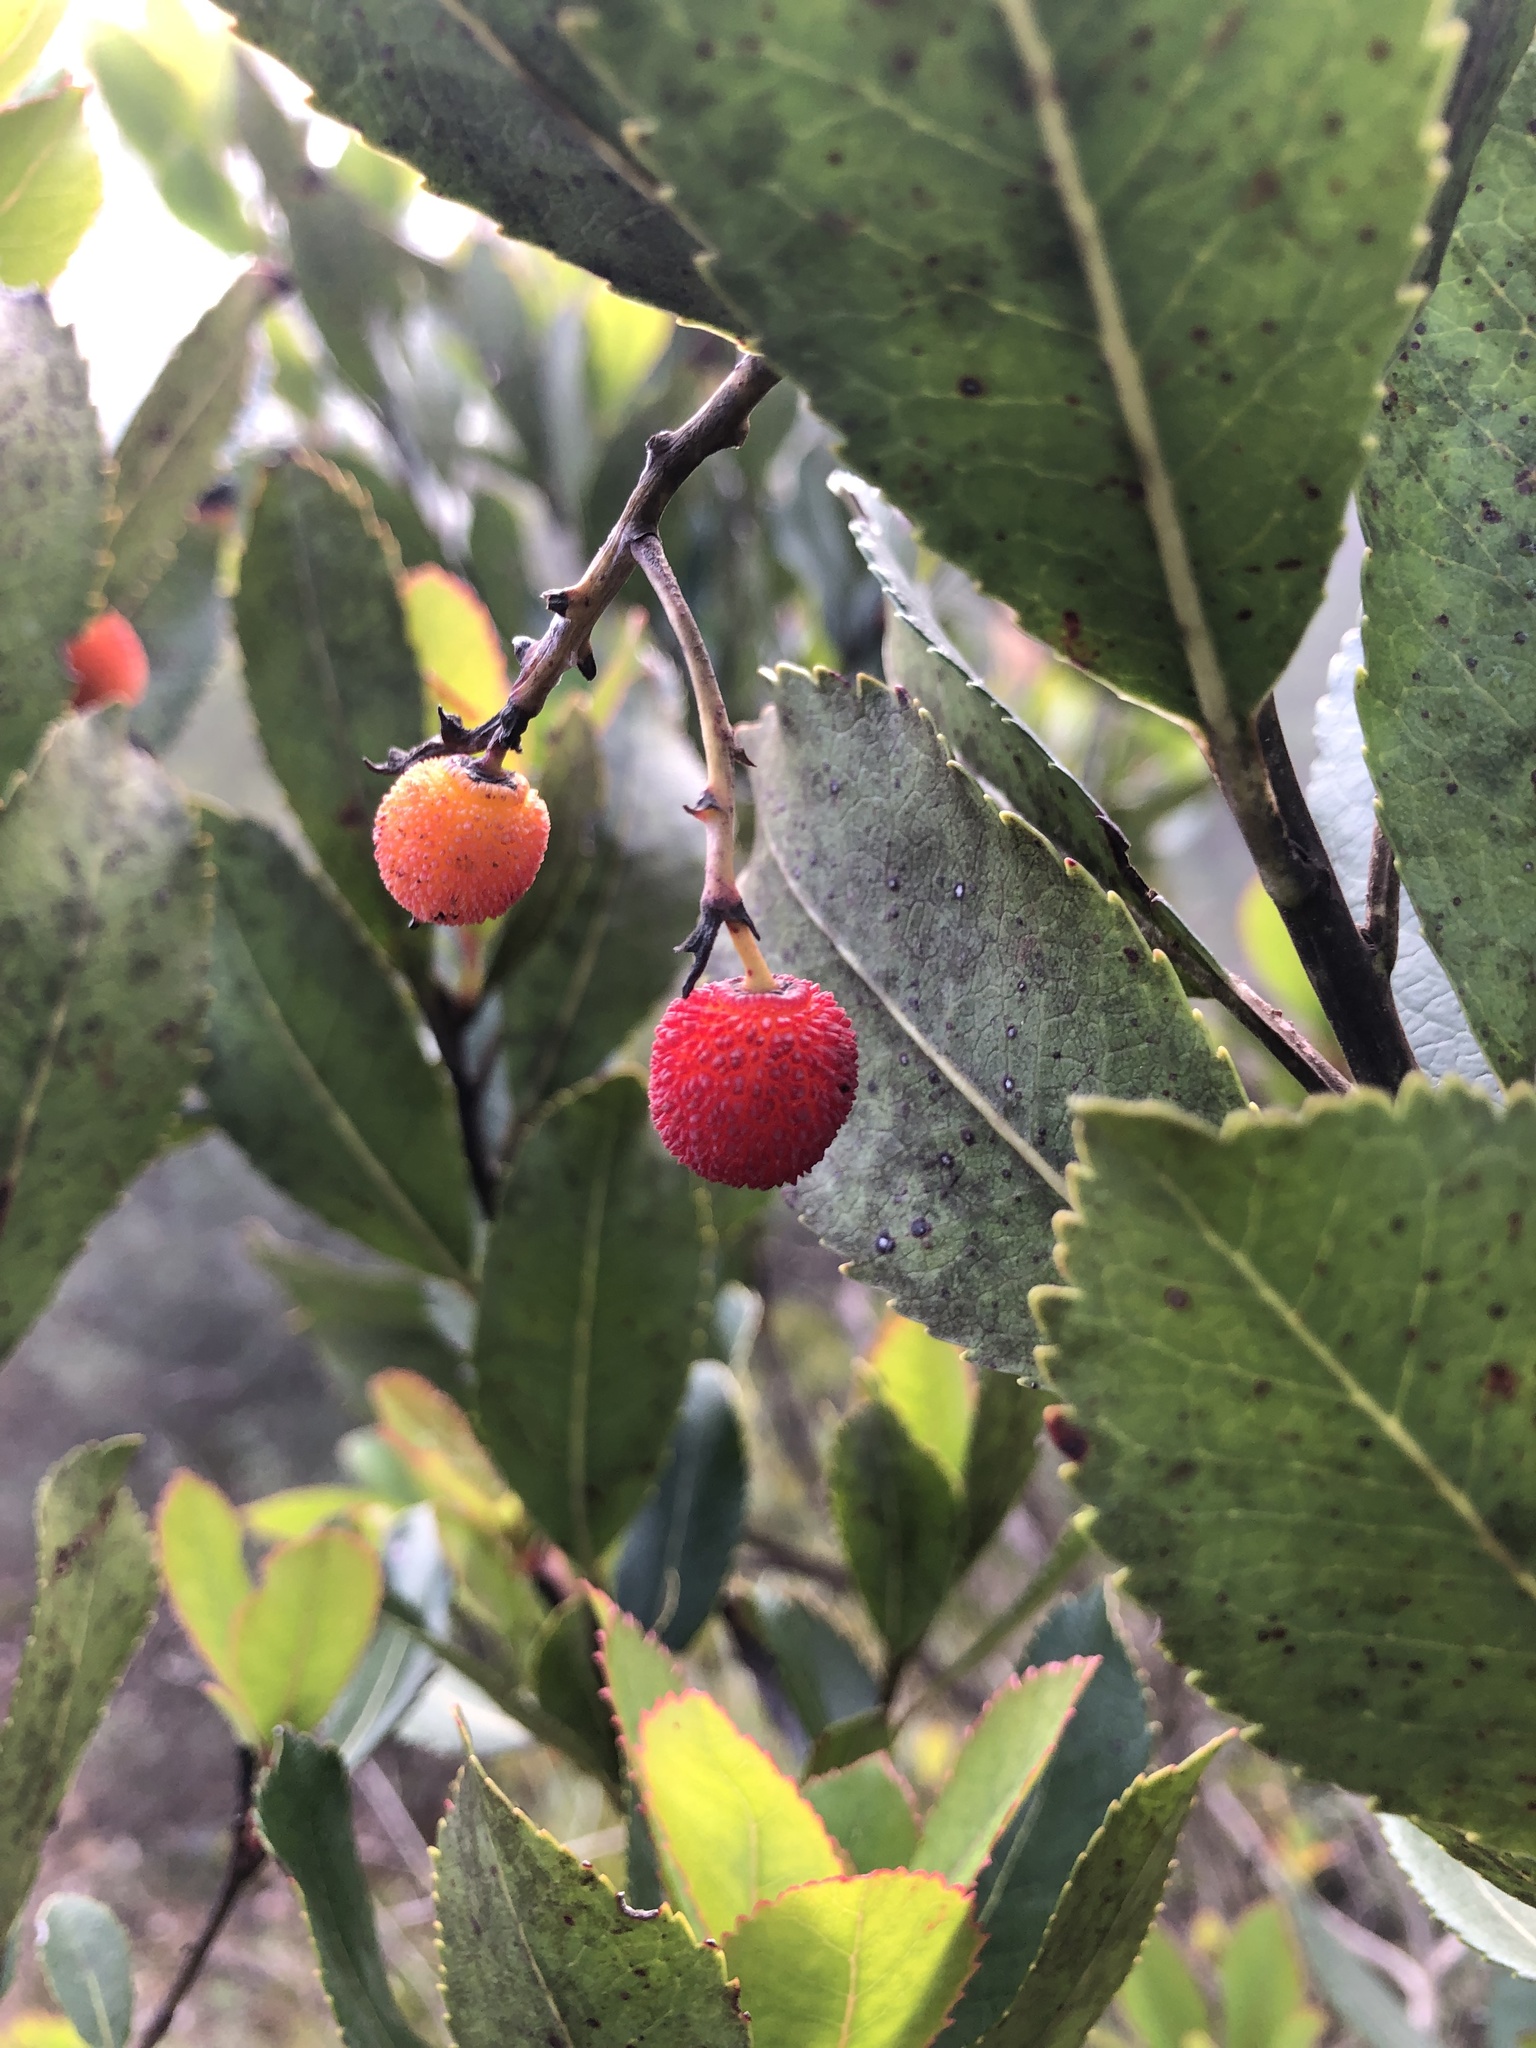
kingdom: Plantae
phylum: Tracheophyta
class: Magnoliopsida
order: Ericales
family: Ericaceae
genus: Arbutus
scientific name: Arbutus unedo
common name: Strawberry-tree
